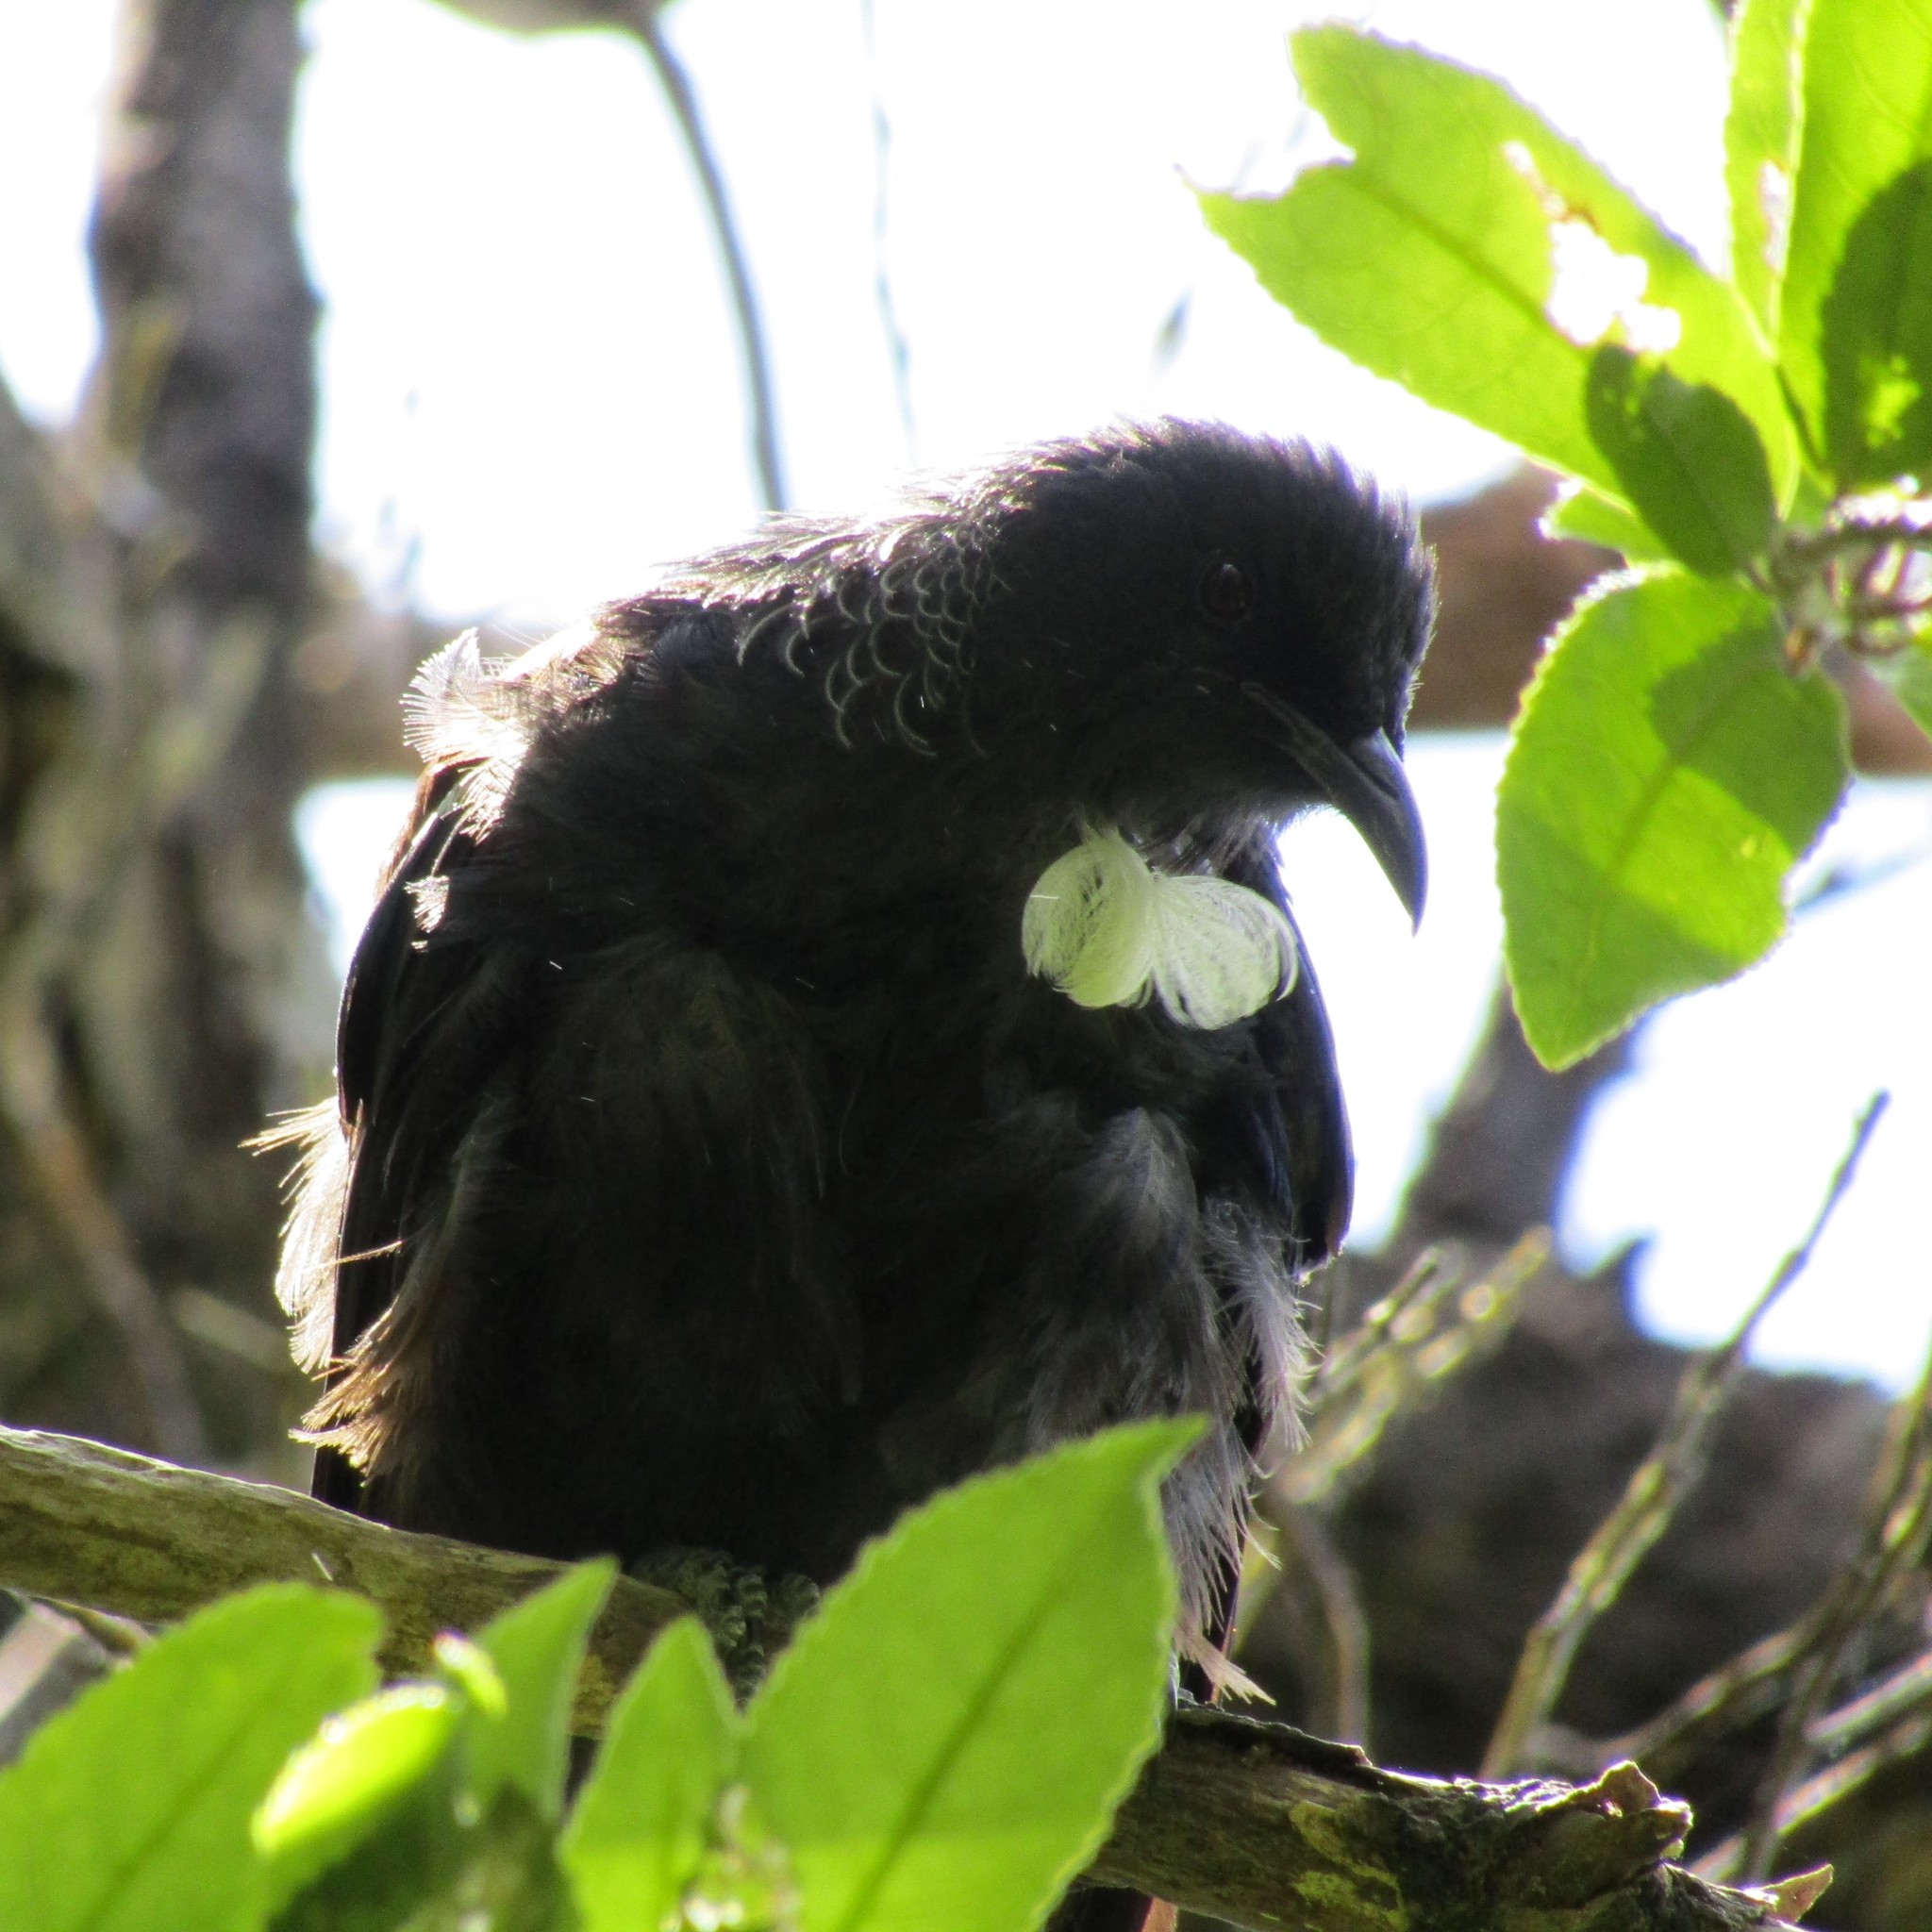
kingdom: Animalia
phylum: Chordata
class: Aves
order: Passeriformes
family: Meliphagidae
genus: Prosthemadera
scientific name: Prosthemadera novaeseelandiae
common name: Tui
